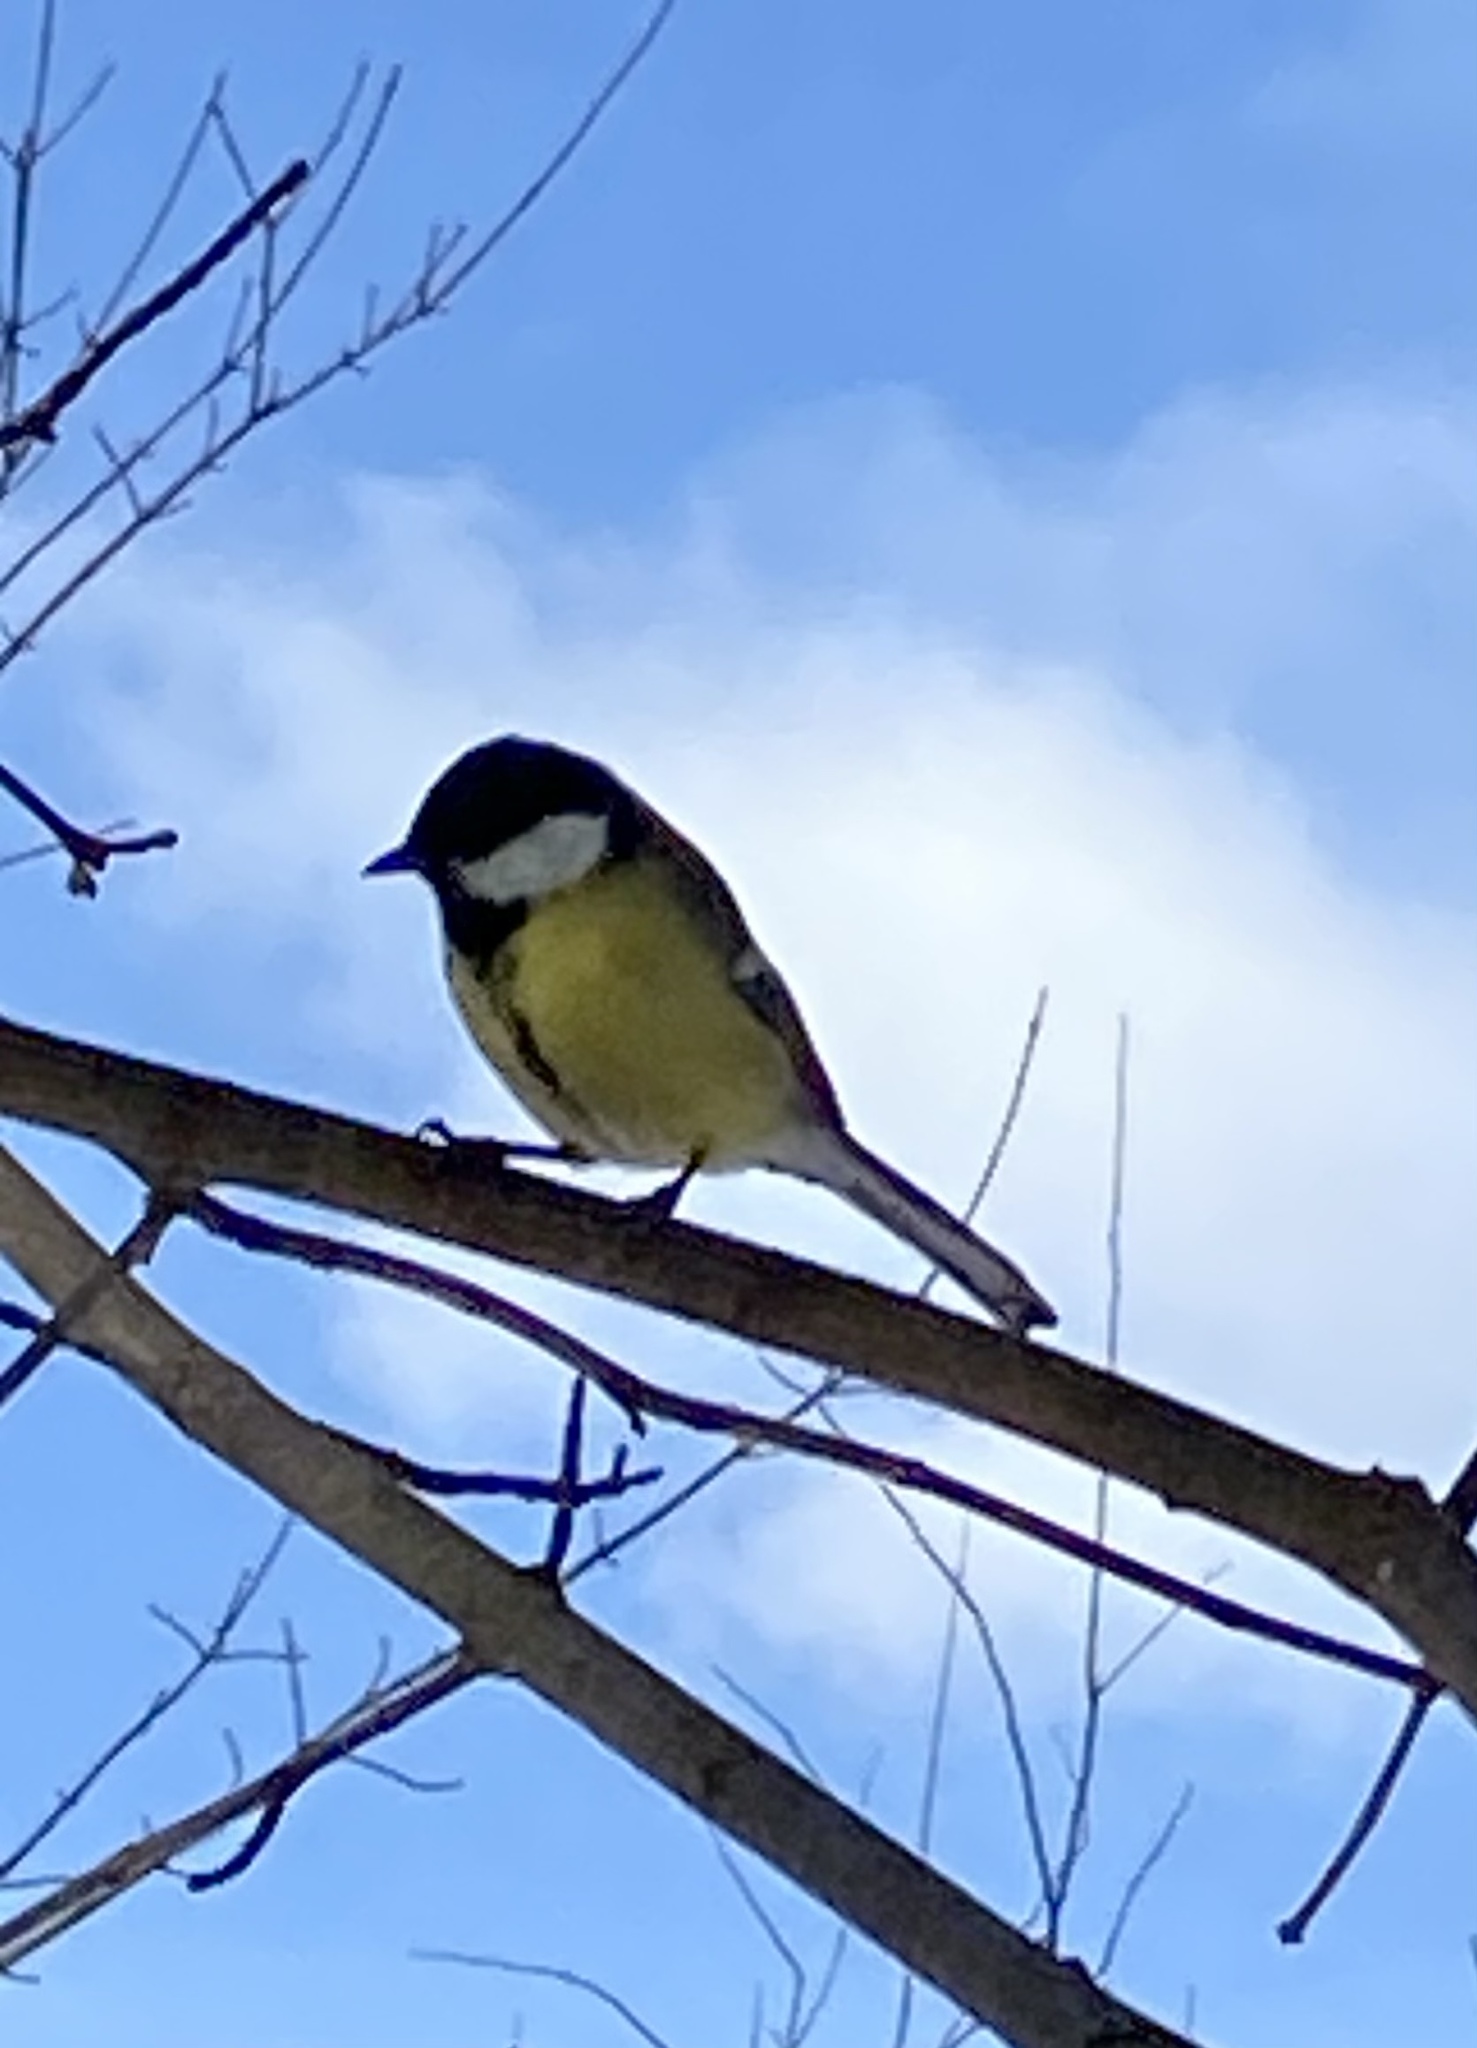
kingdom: Animalia
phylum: Chordata
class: Aves
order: Passeriformes
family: Paridae
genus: Parus
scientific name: Parus major
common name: Great tit
